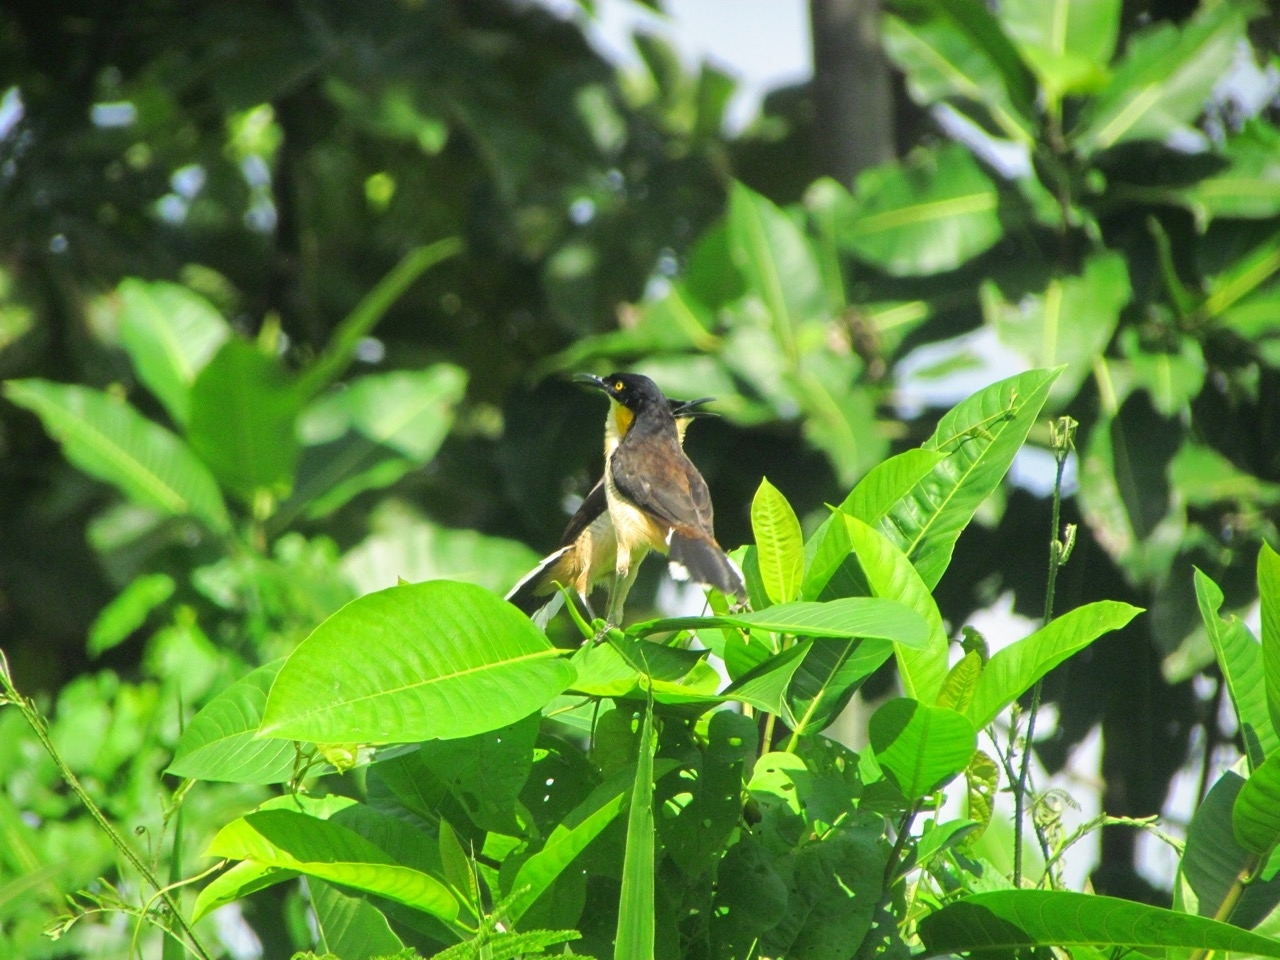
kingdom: Animalia
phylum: Chordata
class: Aves
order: Passeriformes
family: Donacobiidae
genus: Donacobius
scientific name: Donacobius atricapilla
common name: Black-capped donacobius
